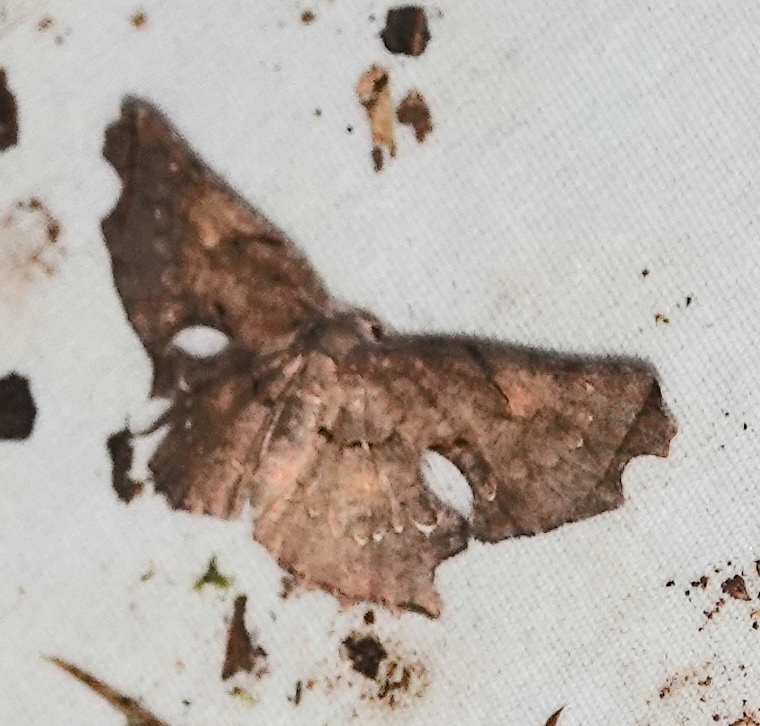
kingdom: Animalia
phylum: Arthropoda
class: Insecta
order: Lepidoptera
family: Uraniidae
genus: Crypsicoela
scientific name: Crypsicoela subocellata
